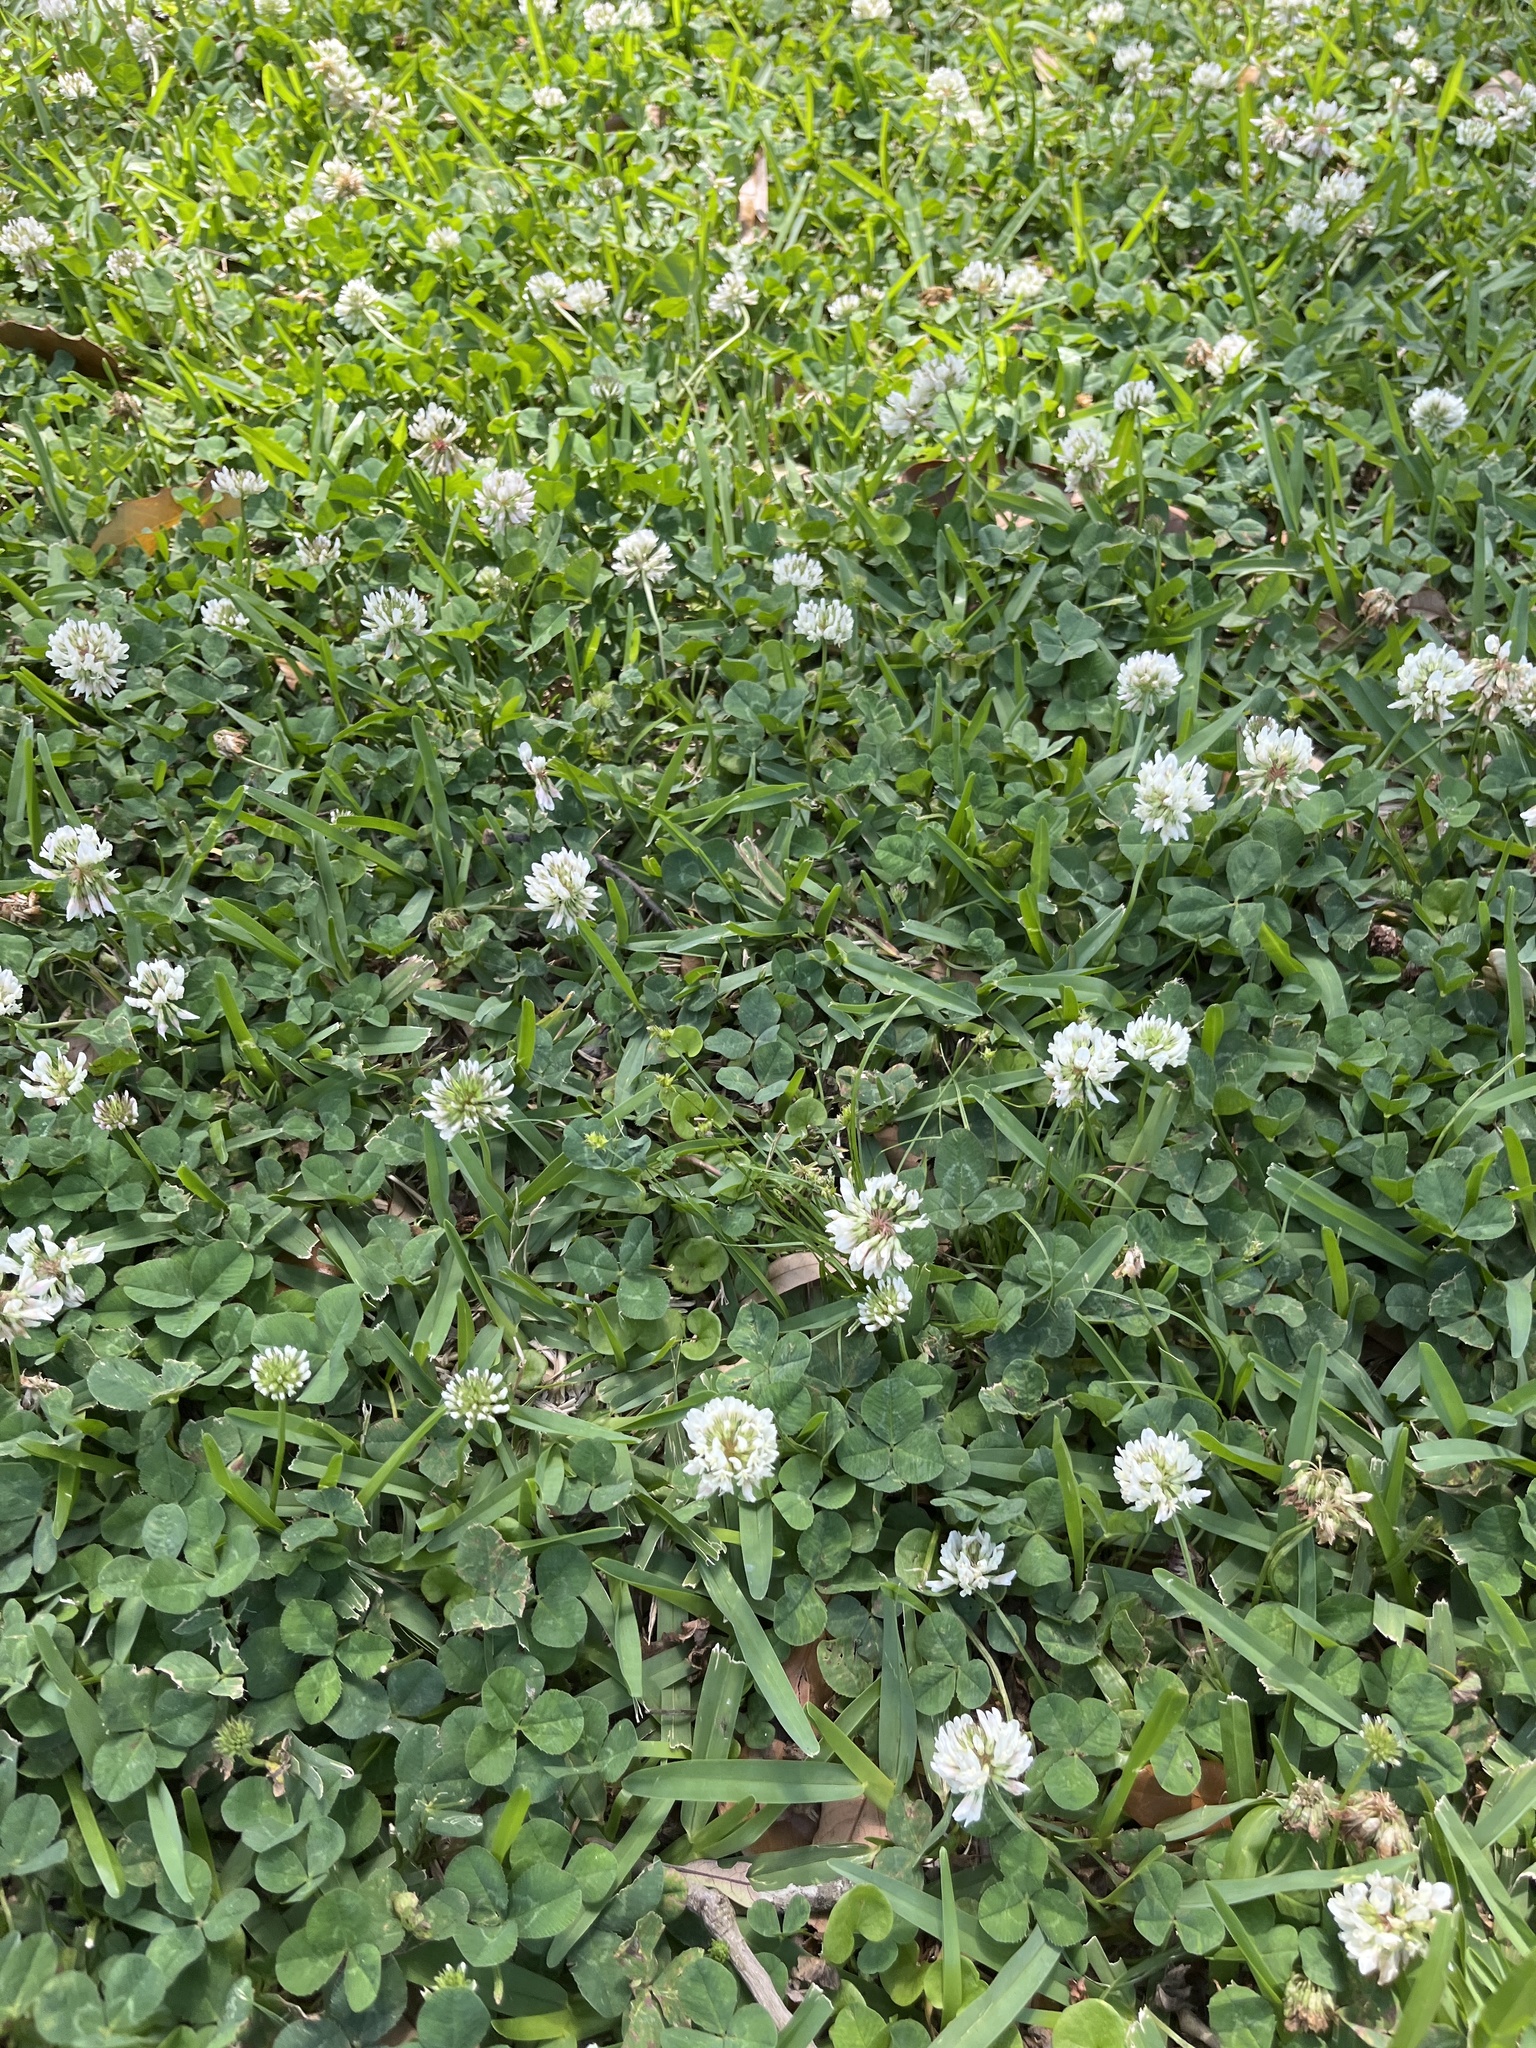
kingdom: Plantae
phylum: Tracheophyta
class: Magnoliopsida
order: Fabales
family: Fabaceae
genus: Trifolium
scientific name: Trifolium repens
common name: White clover
